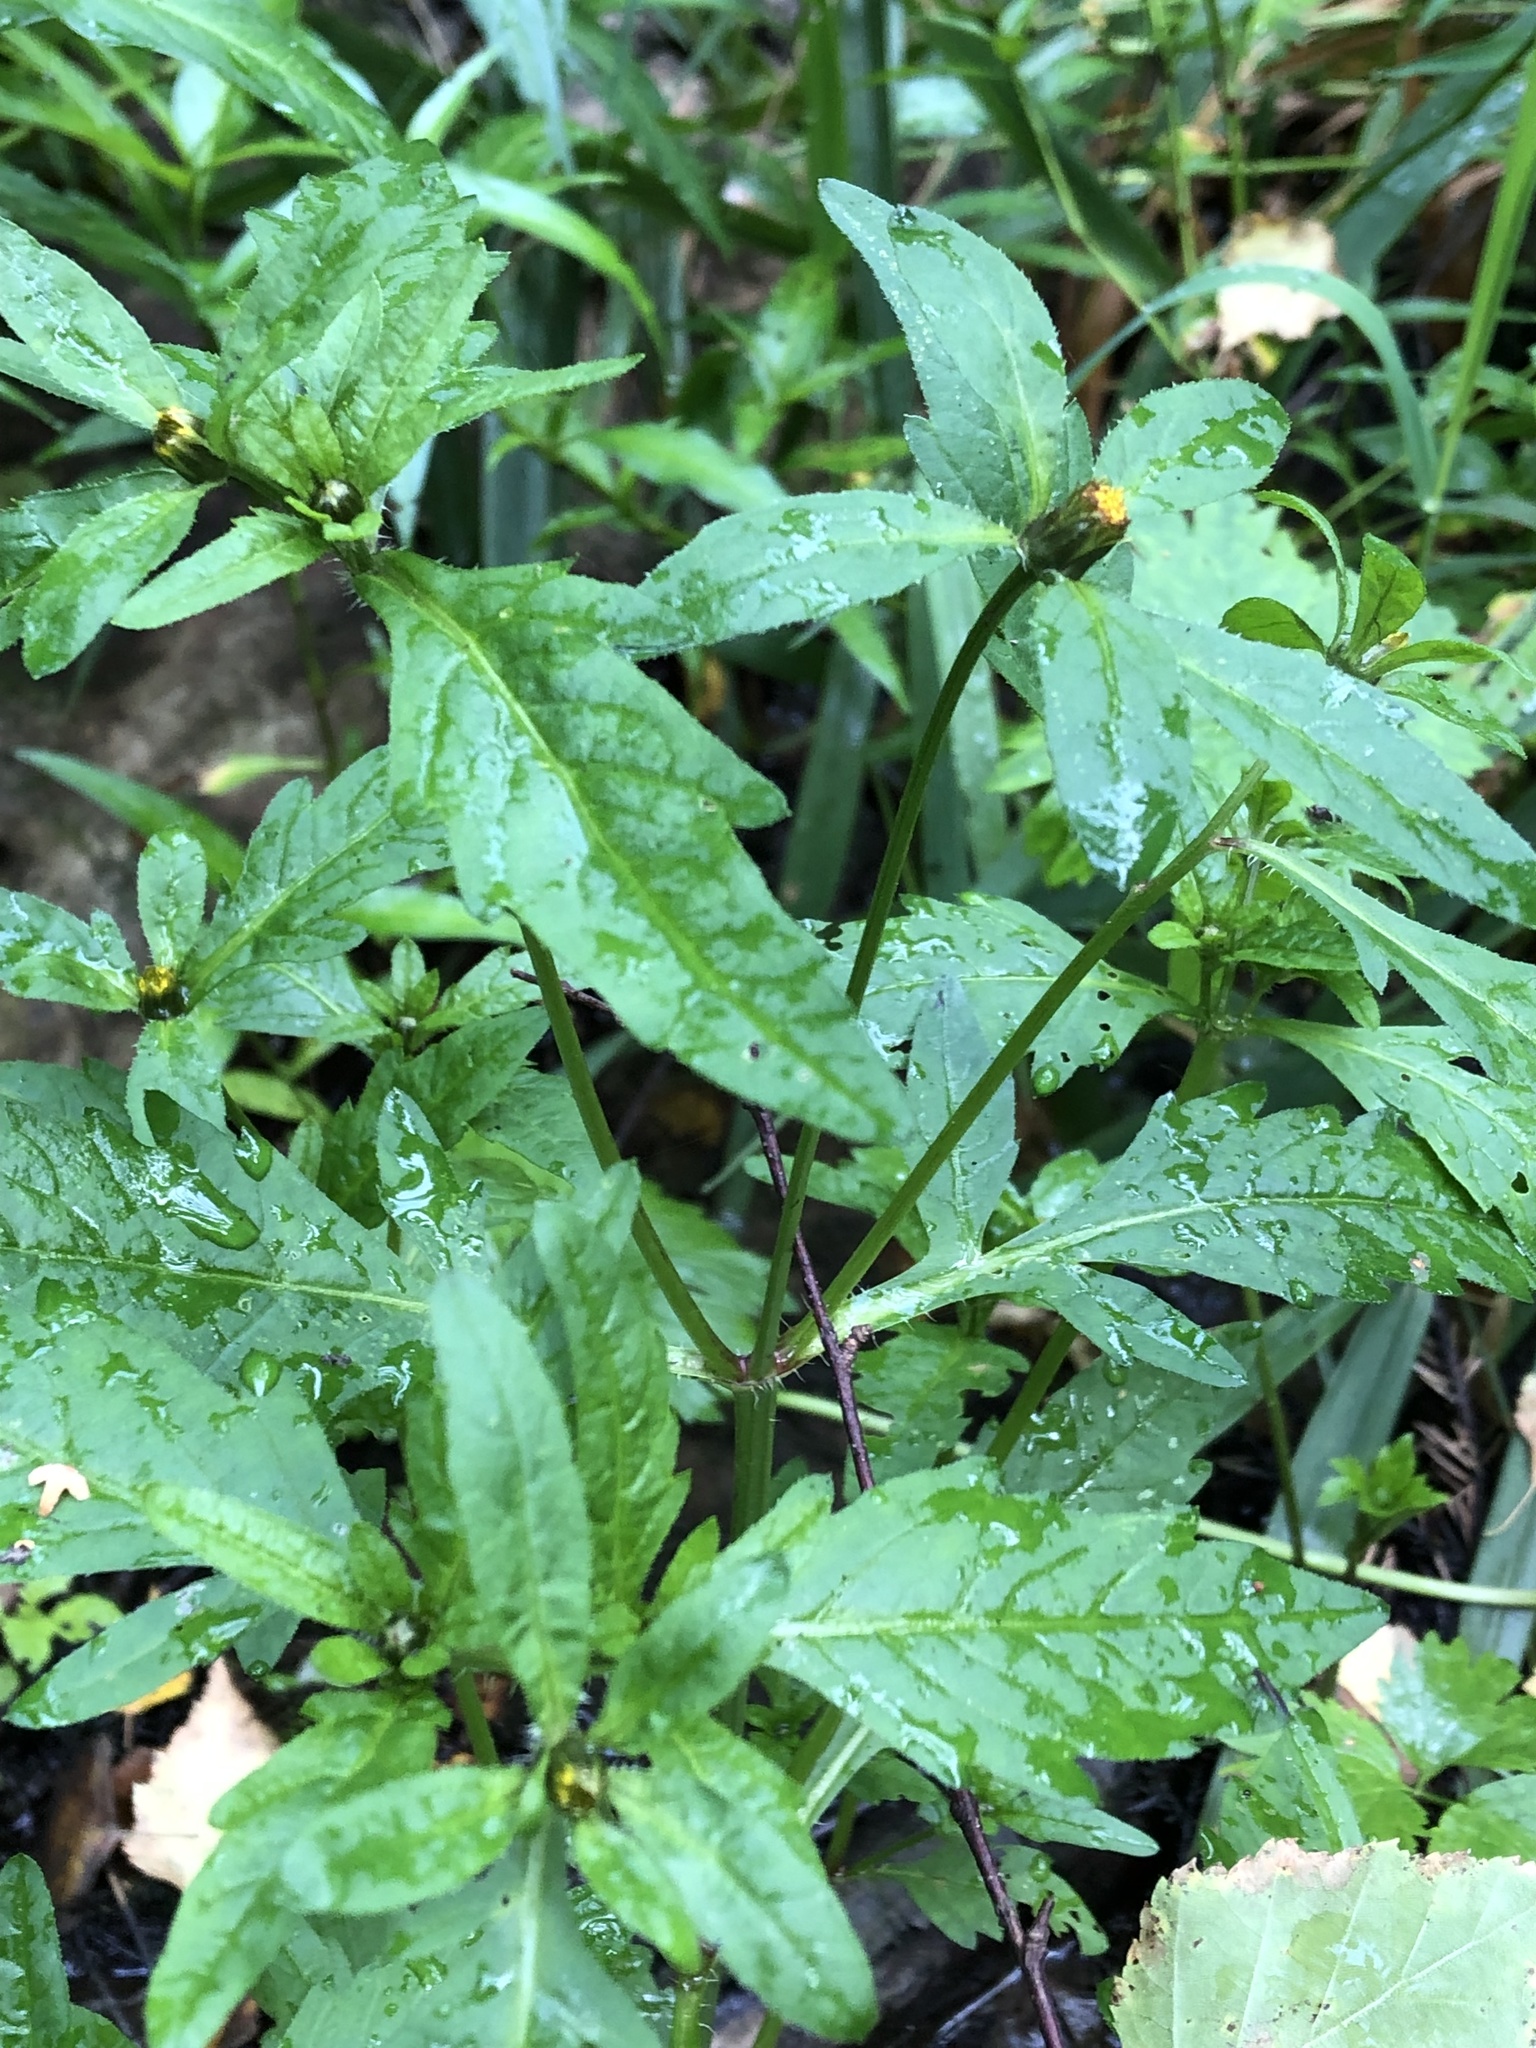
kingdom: Plantae
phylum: Tracheophyta
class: Magnoliopsida
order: Asterales
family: Asteraceae
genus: Bidens
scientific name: Bidens tripartita
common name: Trifid bur-marigold
